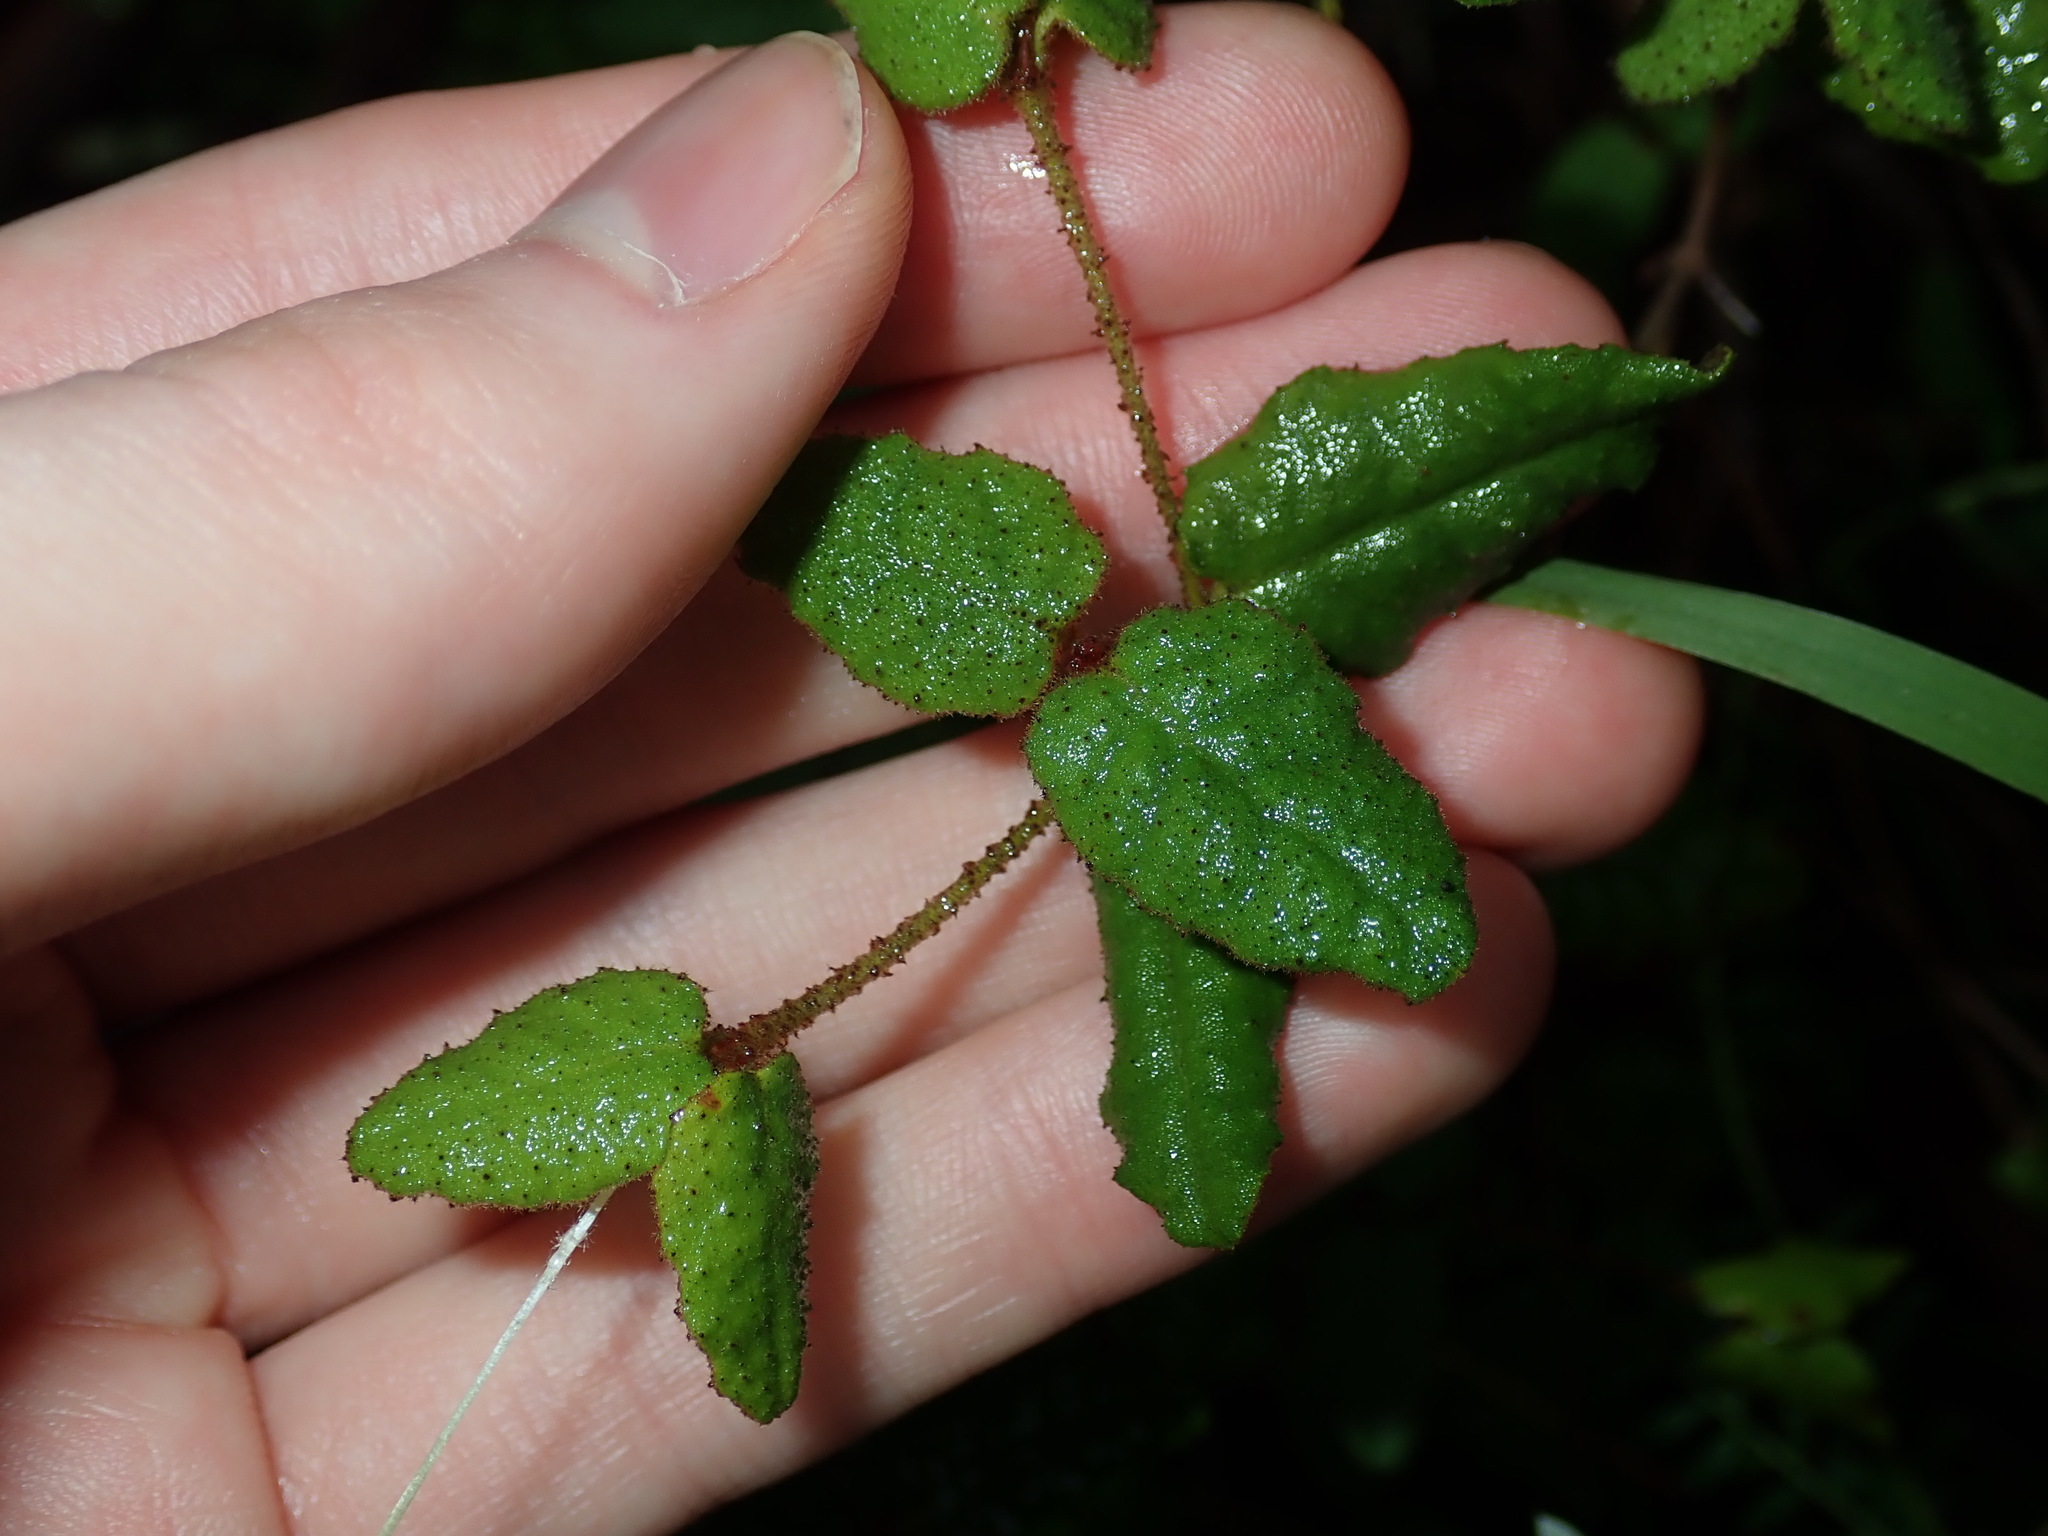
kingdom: Plantae
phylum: Tracheophyta
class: Magnoliopsida
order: Sapindales
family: Rutaceae
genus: Correa
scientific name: Correa reflexa
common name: Common correa
